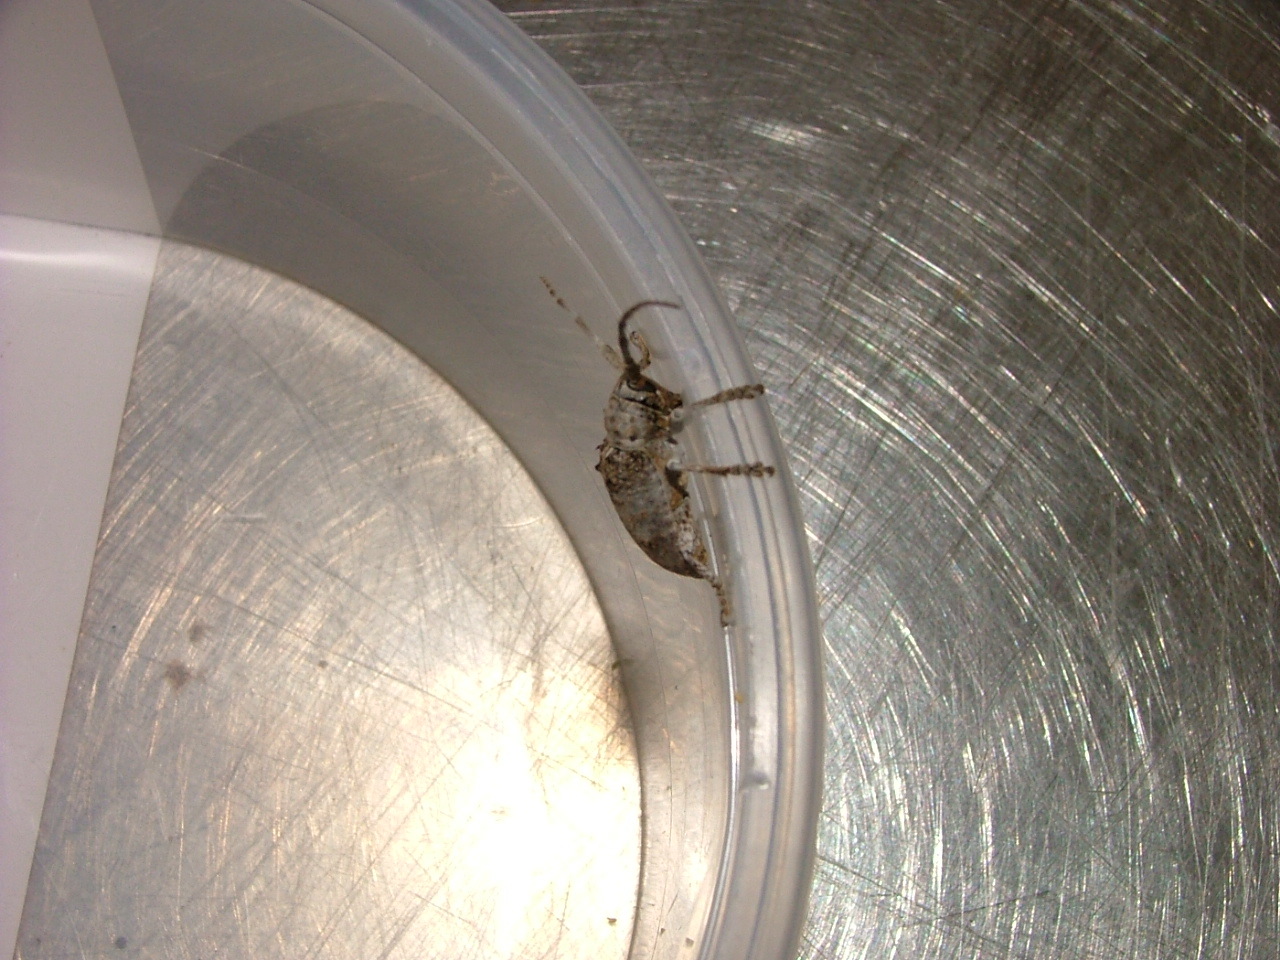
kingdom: Animalia
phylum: Arthropoda
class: Insecta
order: Coleoptera
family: Cerambycidae
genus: Crossotus
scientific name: Crossotus stypticus
